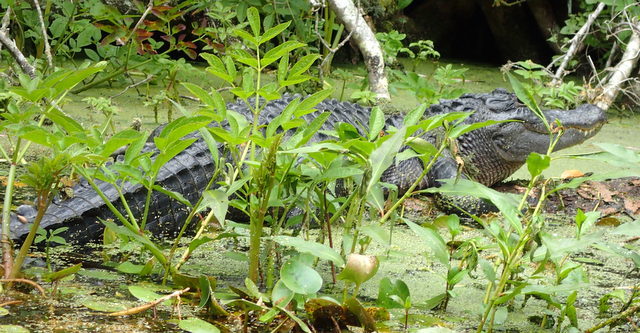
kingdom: Animalia
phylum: Chordata
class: Crocodylia
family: Alligatoridae
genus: Alligator
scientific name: Alligator mississippiensis
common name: American alligator
